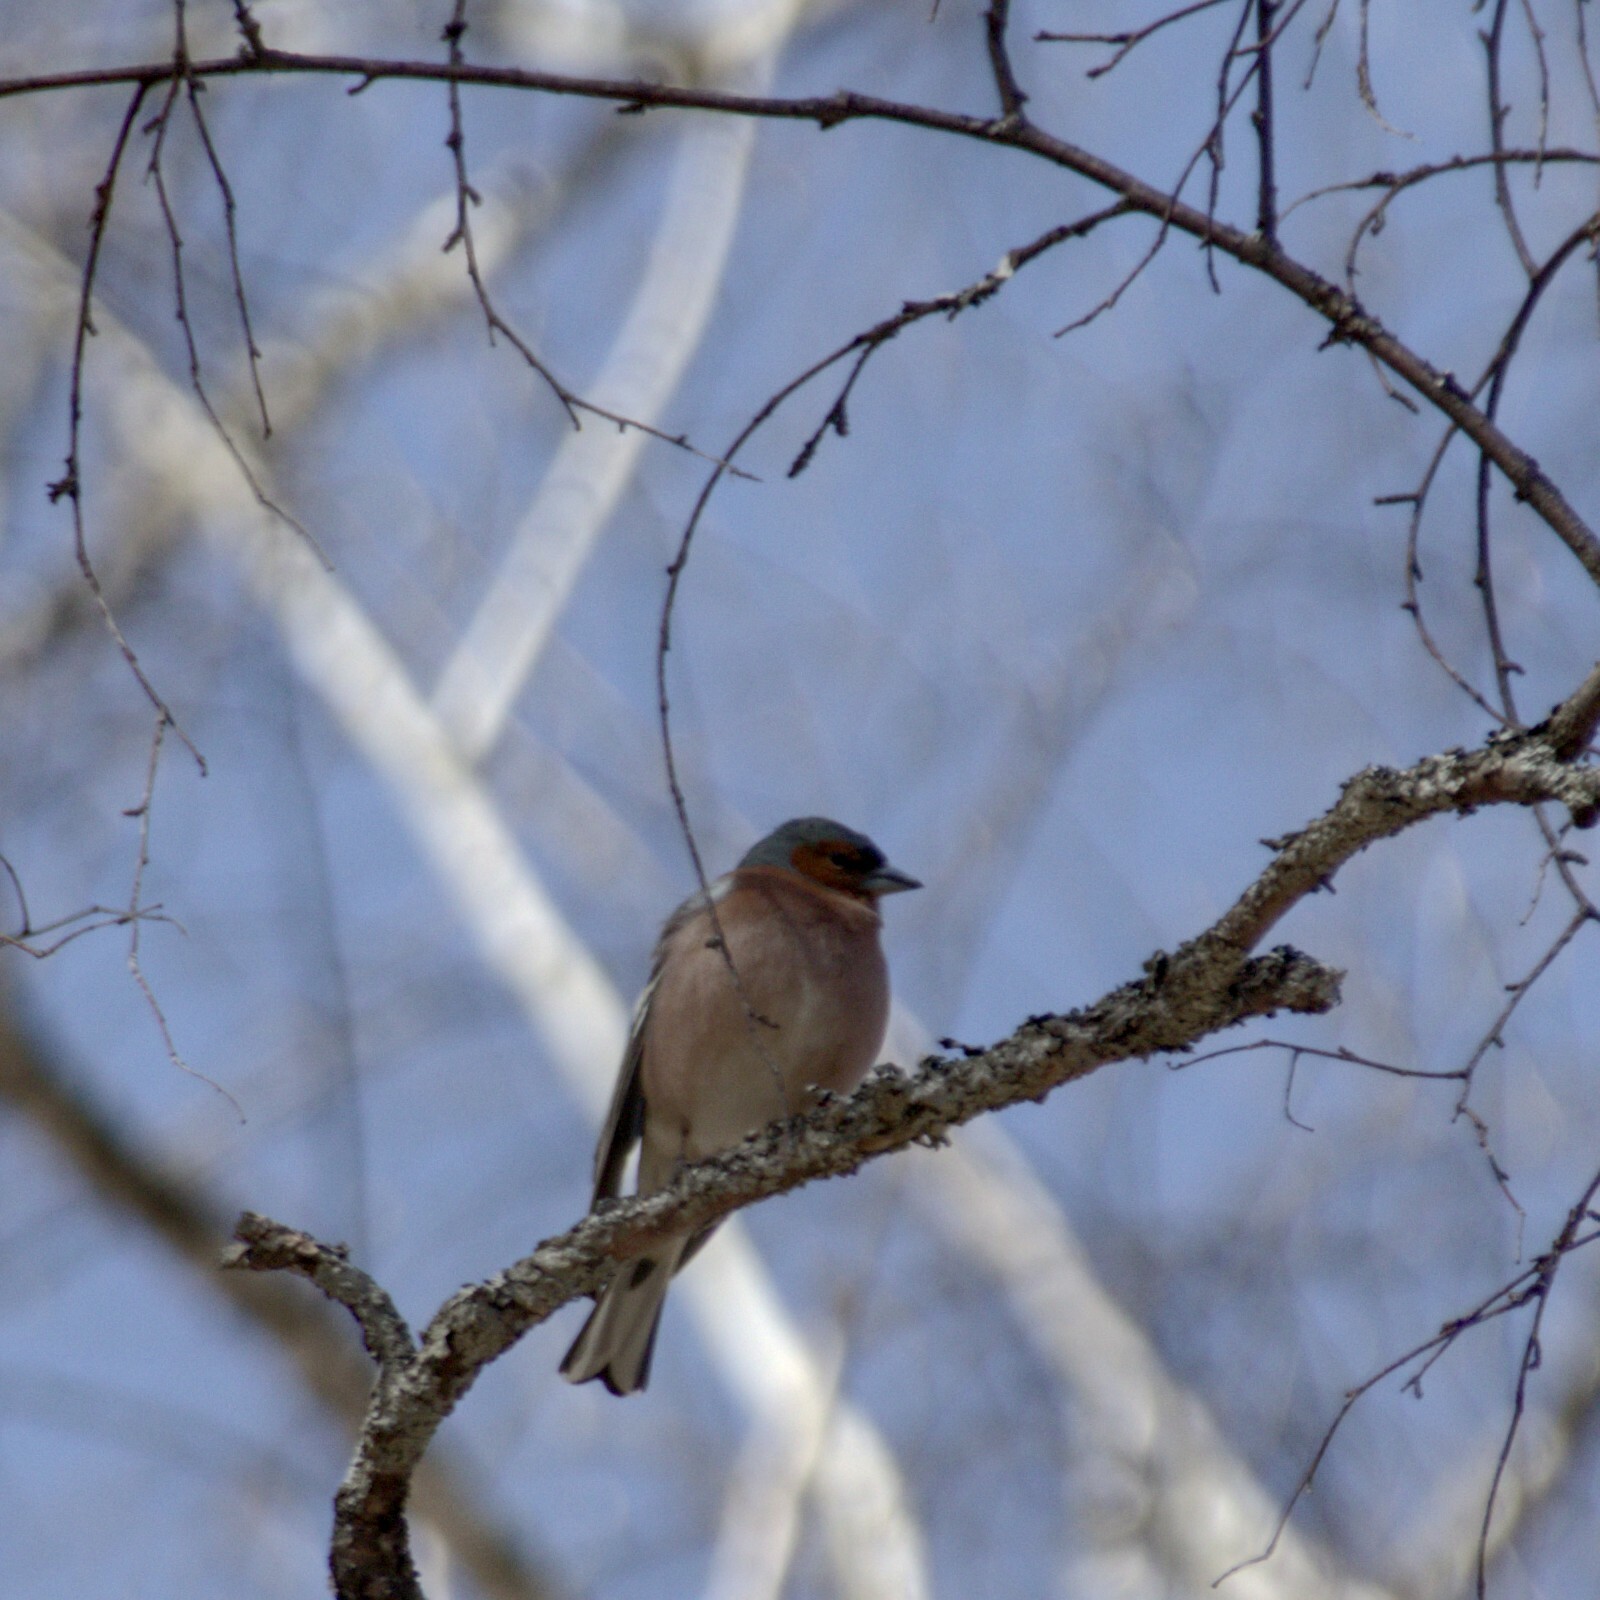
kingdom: Animalia
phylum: Chordata
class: Aves
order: Passeriformes
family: Fringillidae
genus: Fringilla
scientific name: Fringilla coelebs
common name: Common chaffinch
